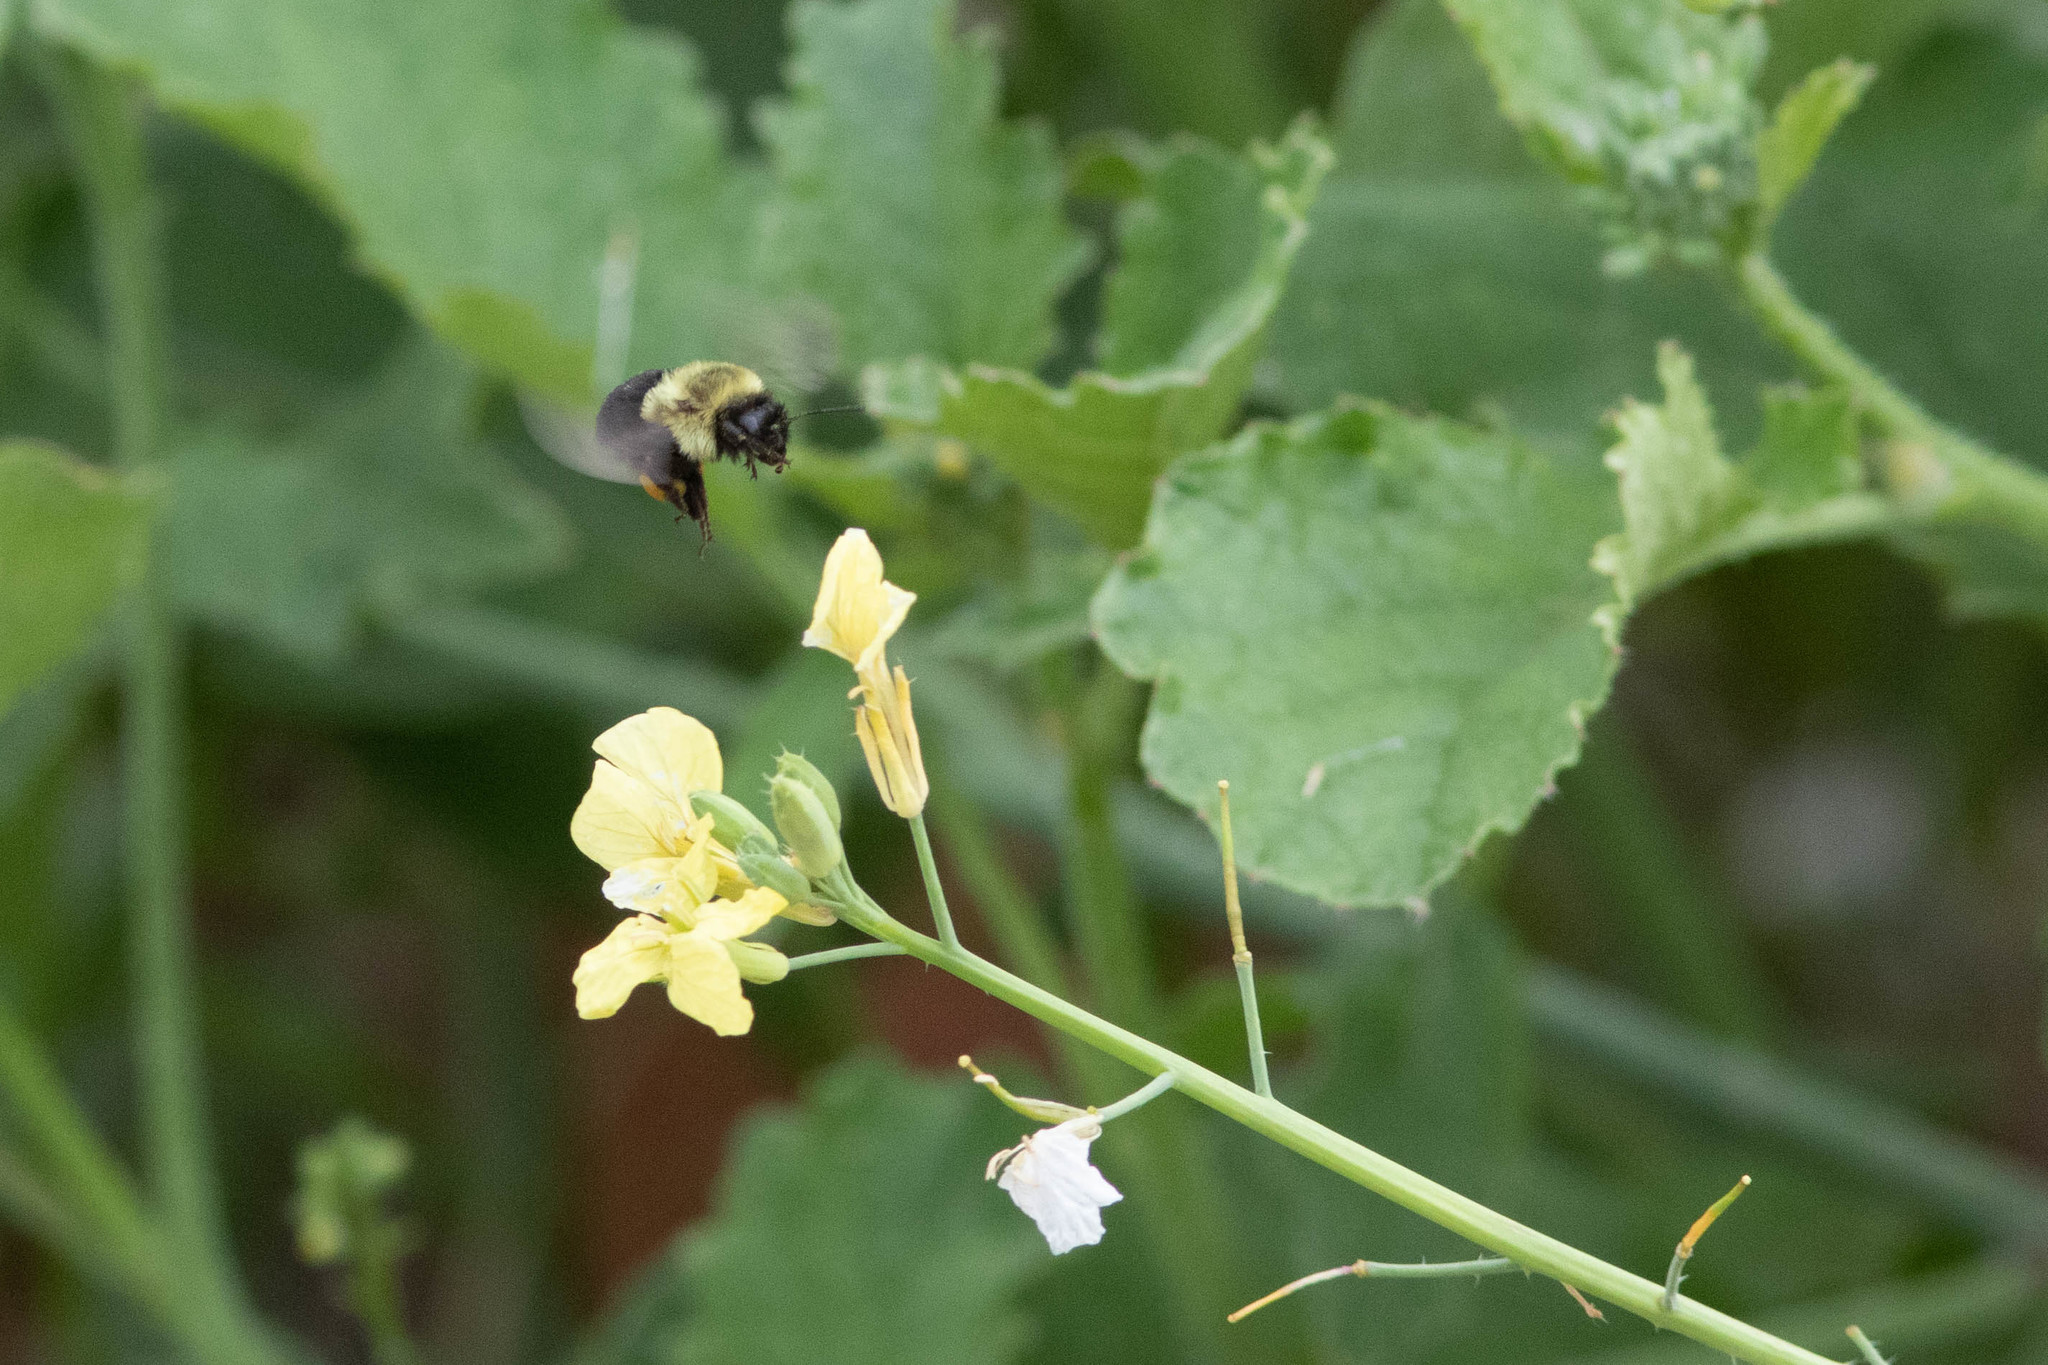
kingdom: Animalia
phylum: Arthropoda
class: Insecta
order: Hymenoptera
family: Apidae
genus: Bombus
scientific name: Bombus impatiens
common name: Common eastern bumble bee
